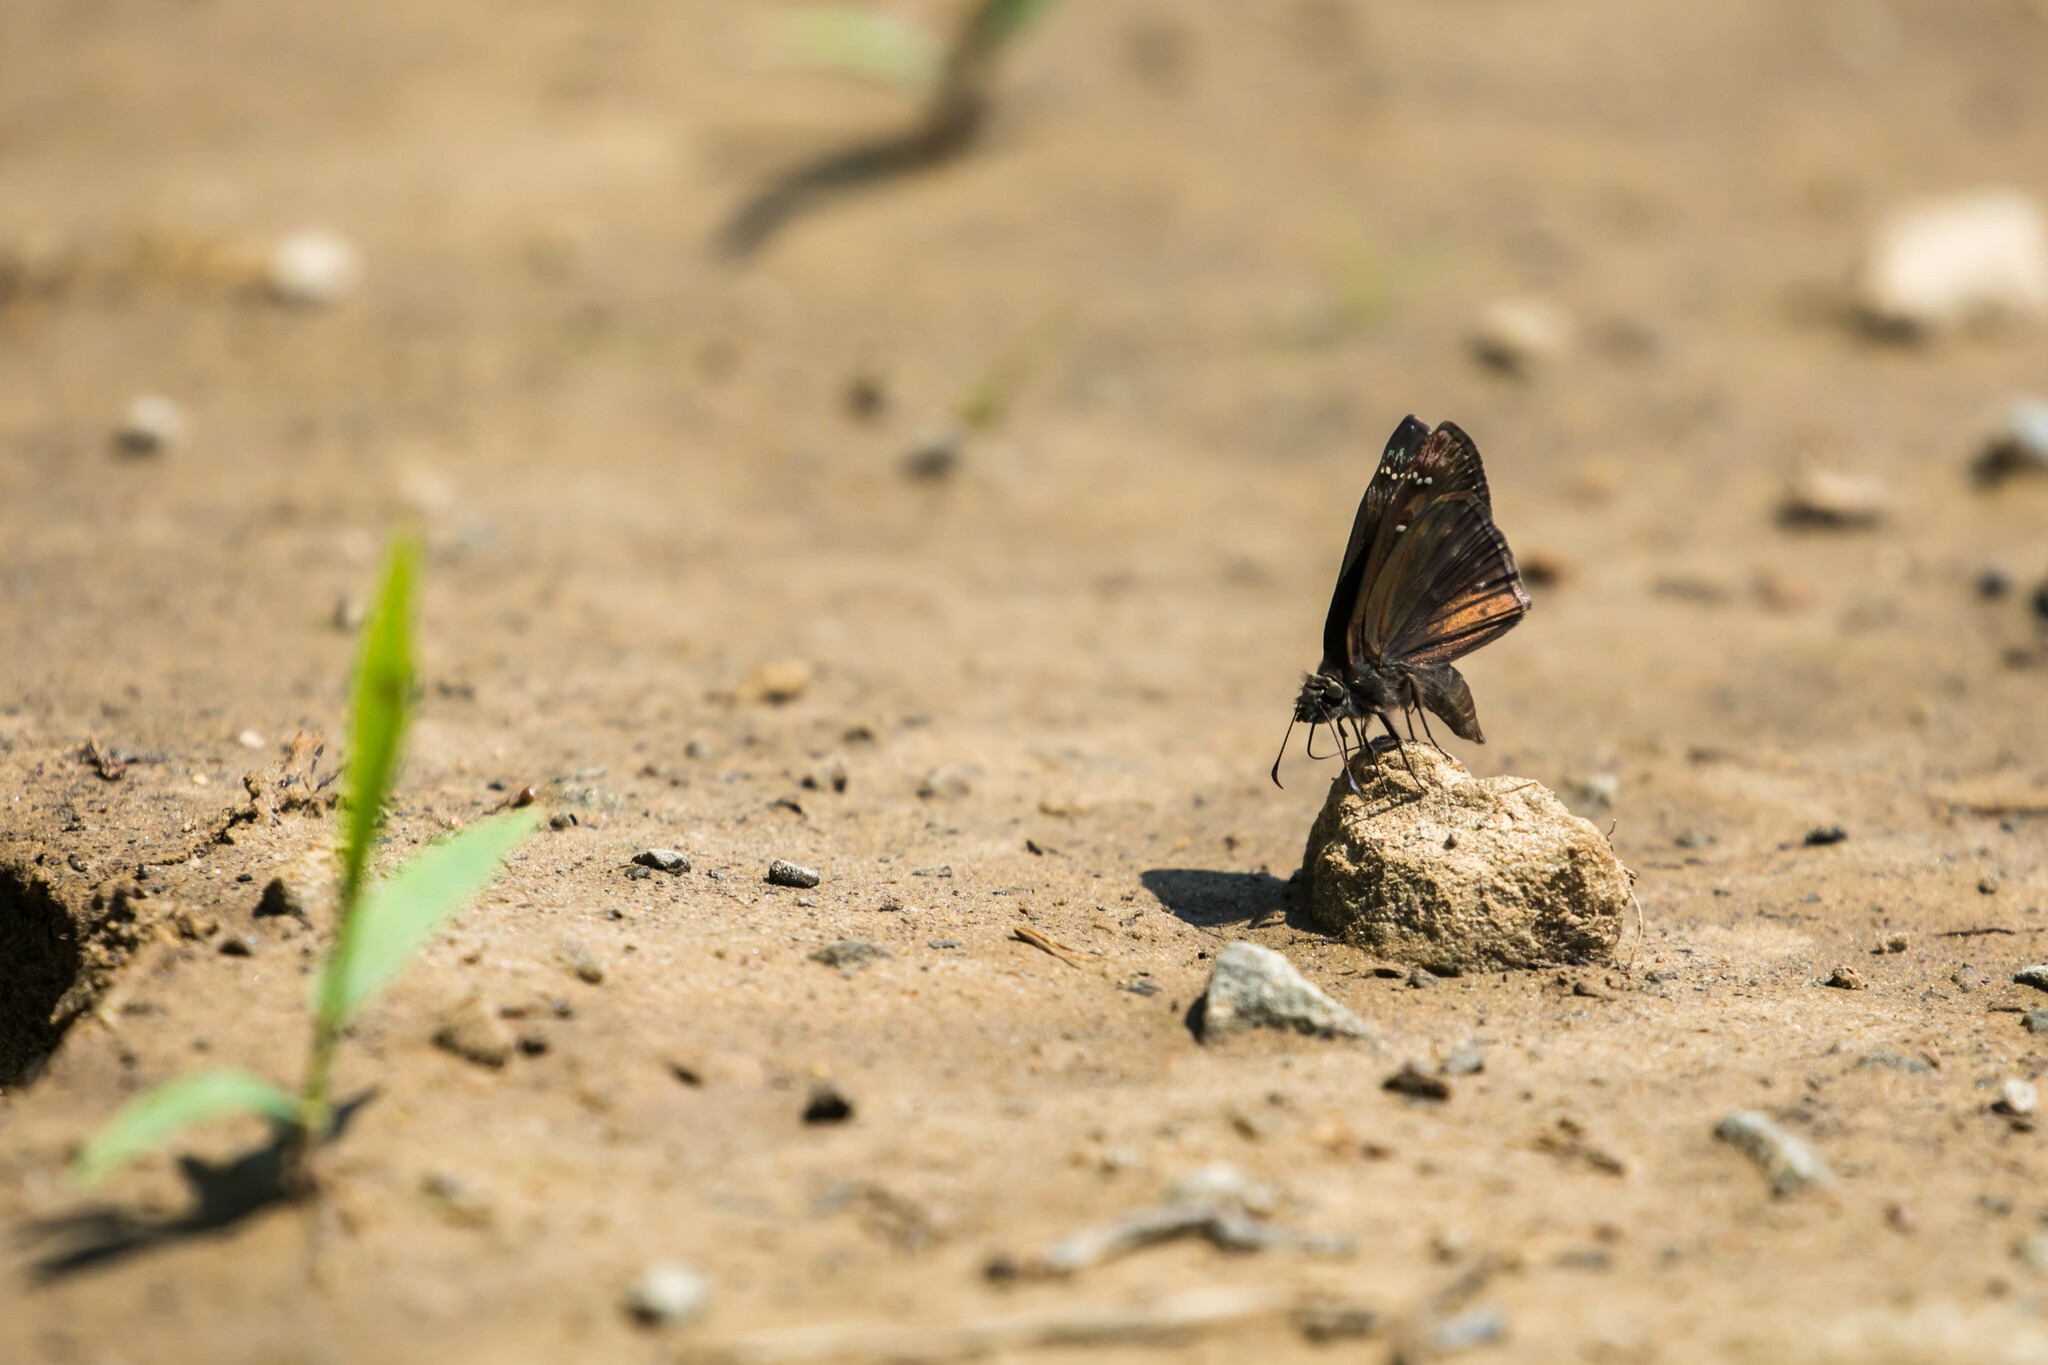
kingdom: Animalia
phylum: Arthropoda
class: Insecta
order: Lepidoptera
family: Hesperiidae
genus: Erynnis
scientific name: Erynnis horatius
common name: Horace's duskywing
